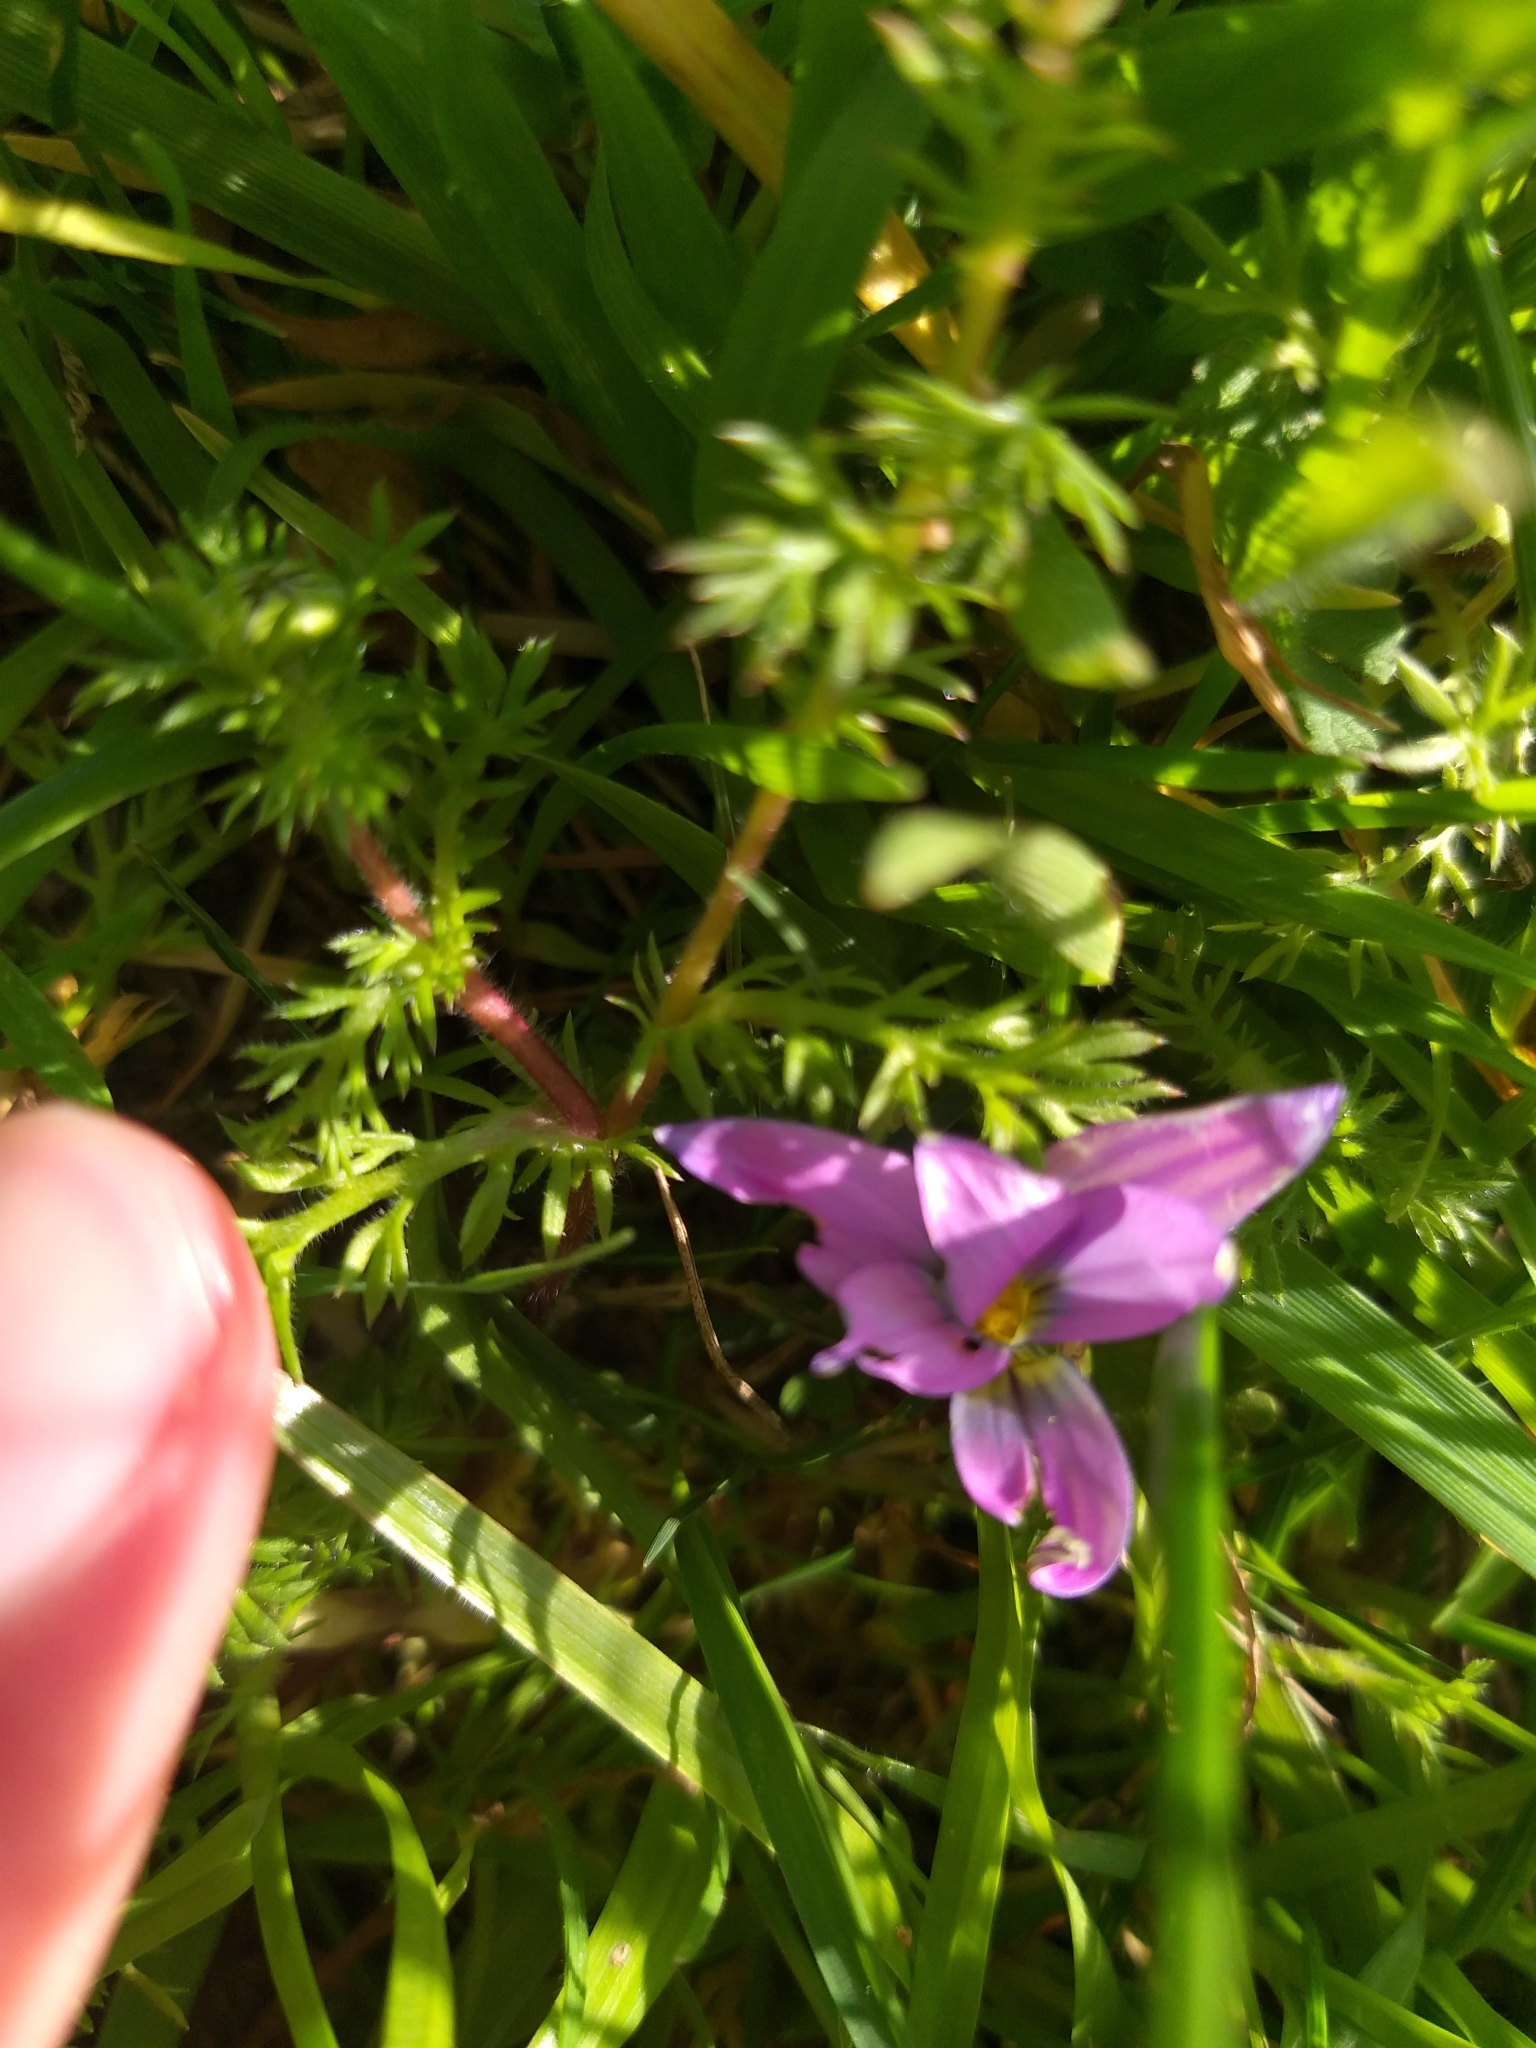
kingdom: Plantae
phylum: Tracheophyta
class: Liliopsida
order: Asparagales
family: Iridaceae
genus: Romulea
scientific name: Romulea minutiflora
